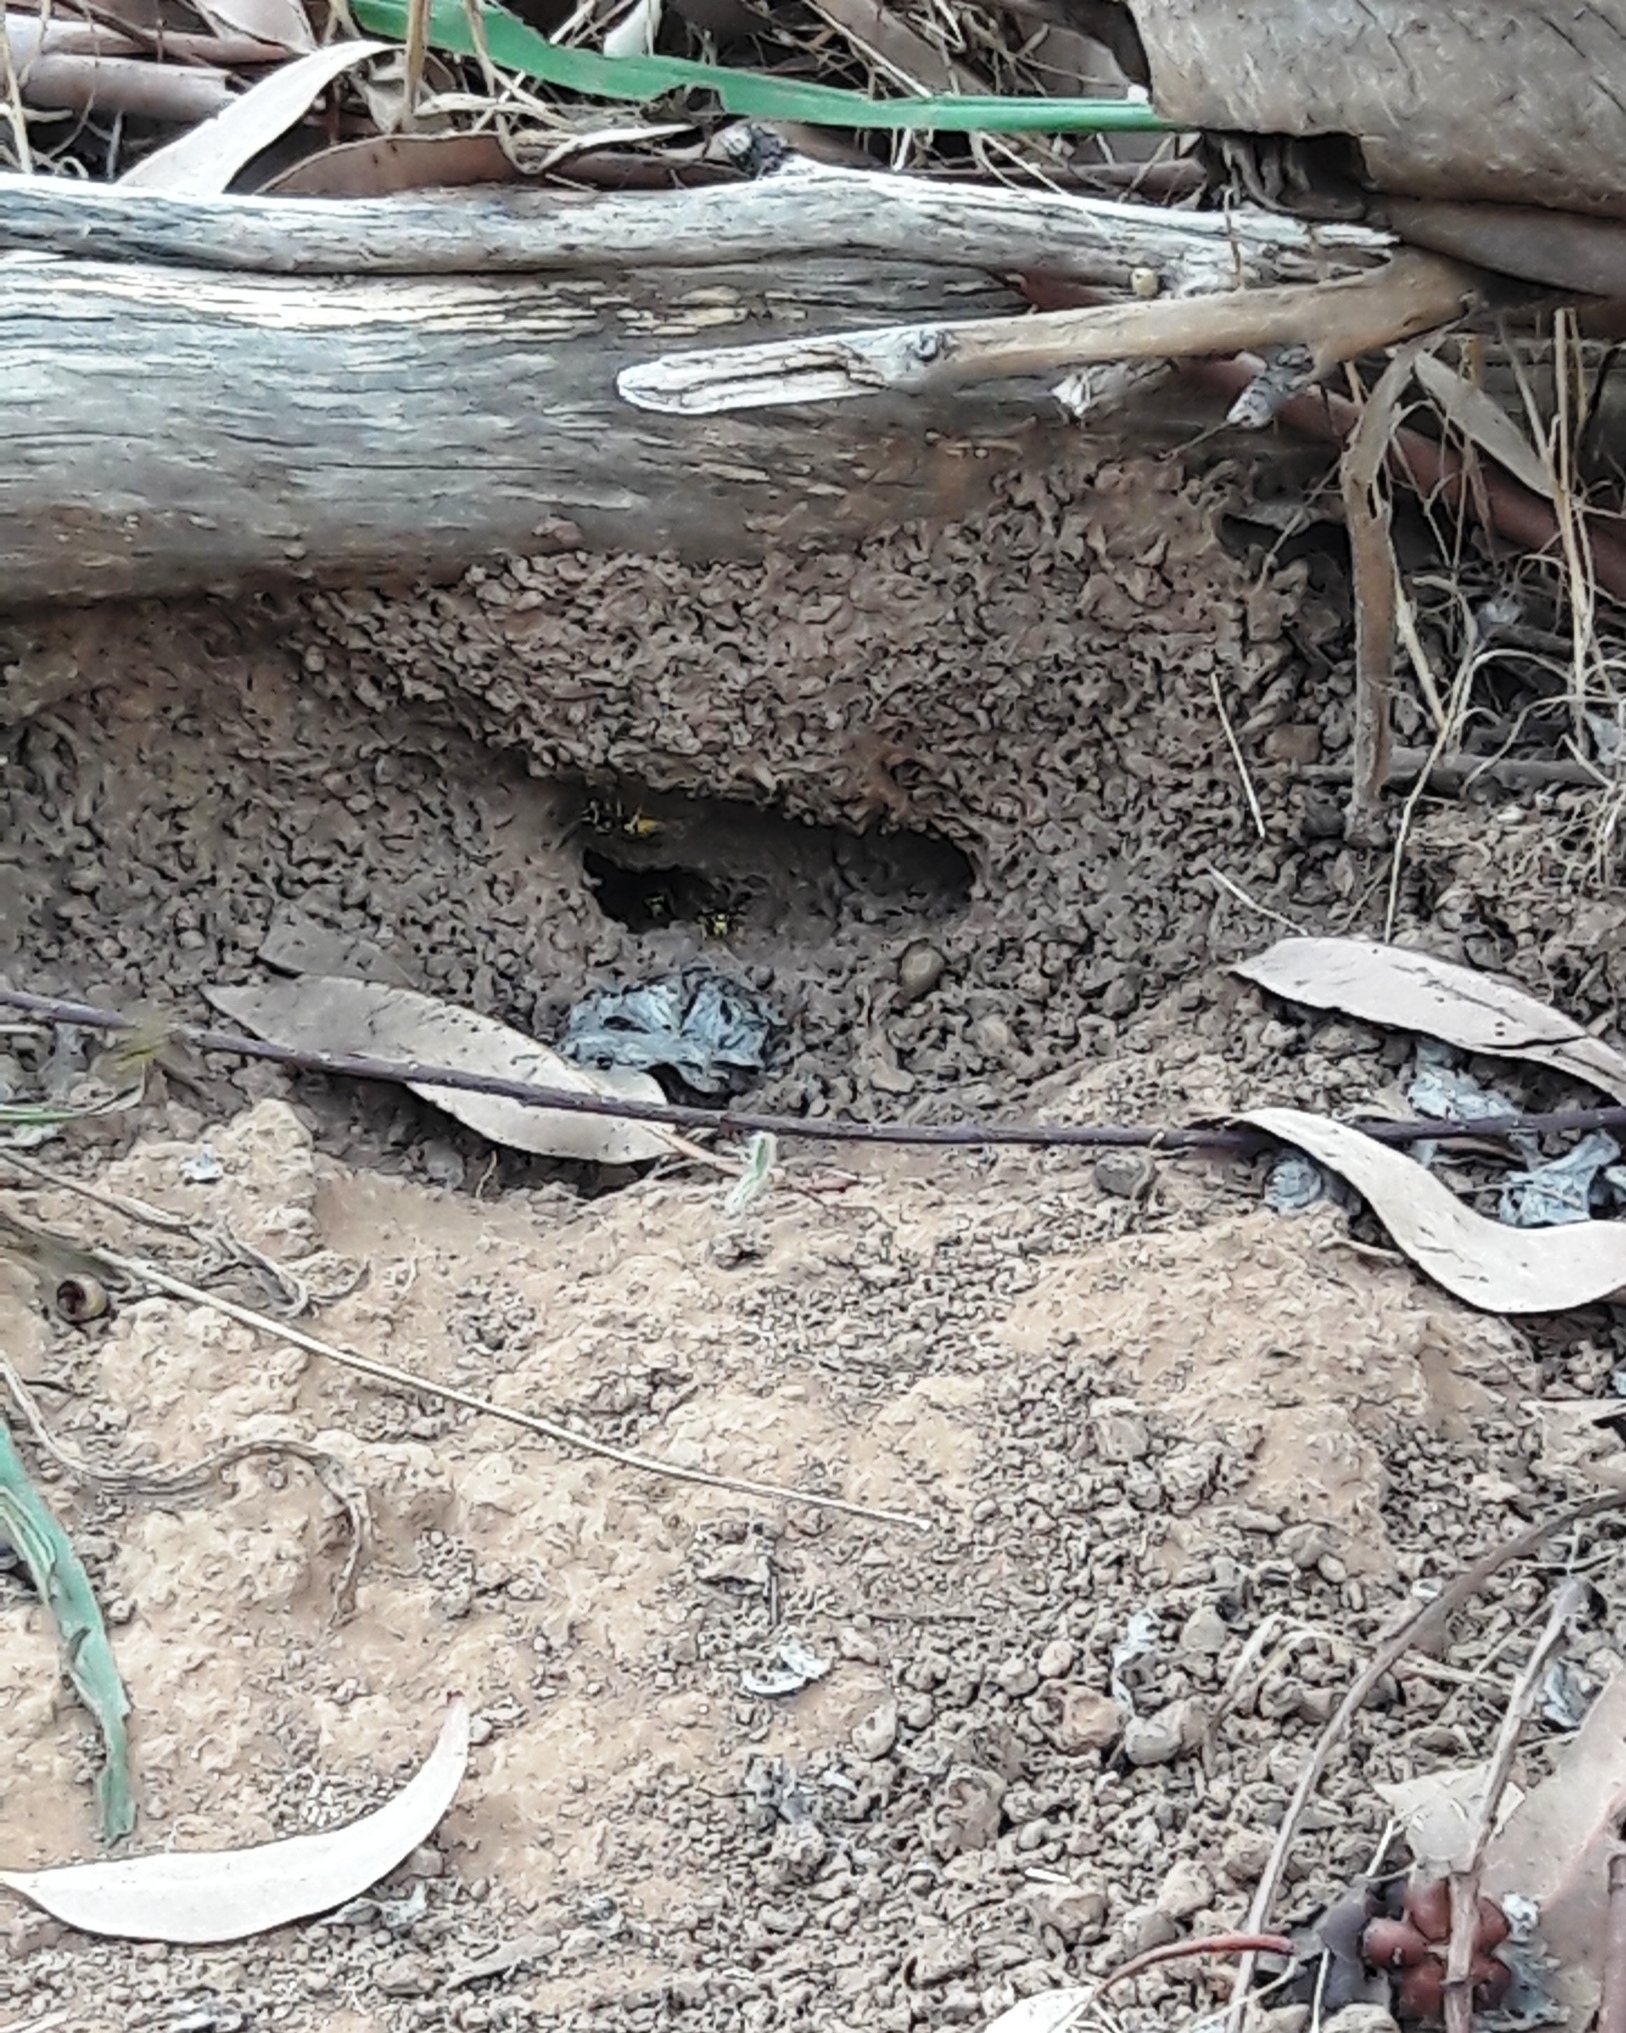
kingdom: Animalia
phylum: Arthropoda
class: Insecta
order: Hymenoptera
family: Vespidae
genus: Vespula
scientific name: Vespula germanica
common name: German wasp
